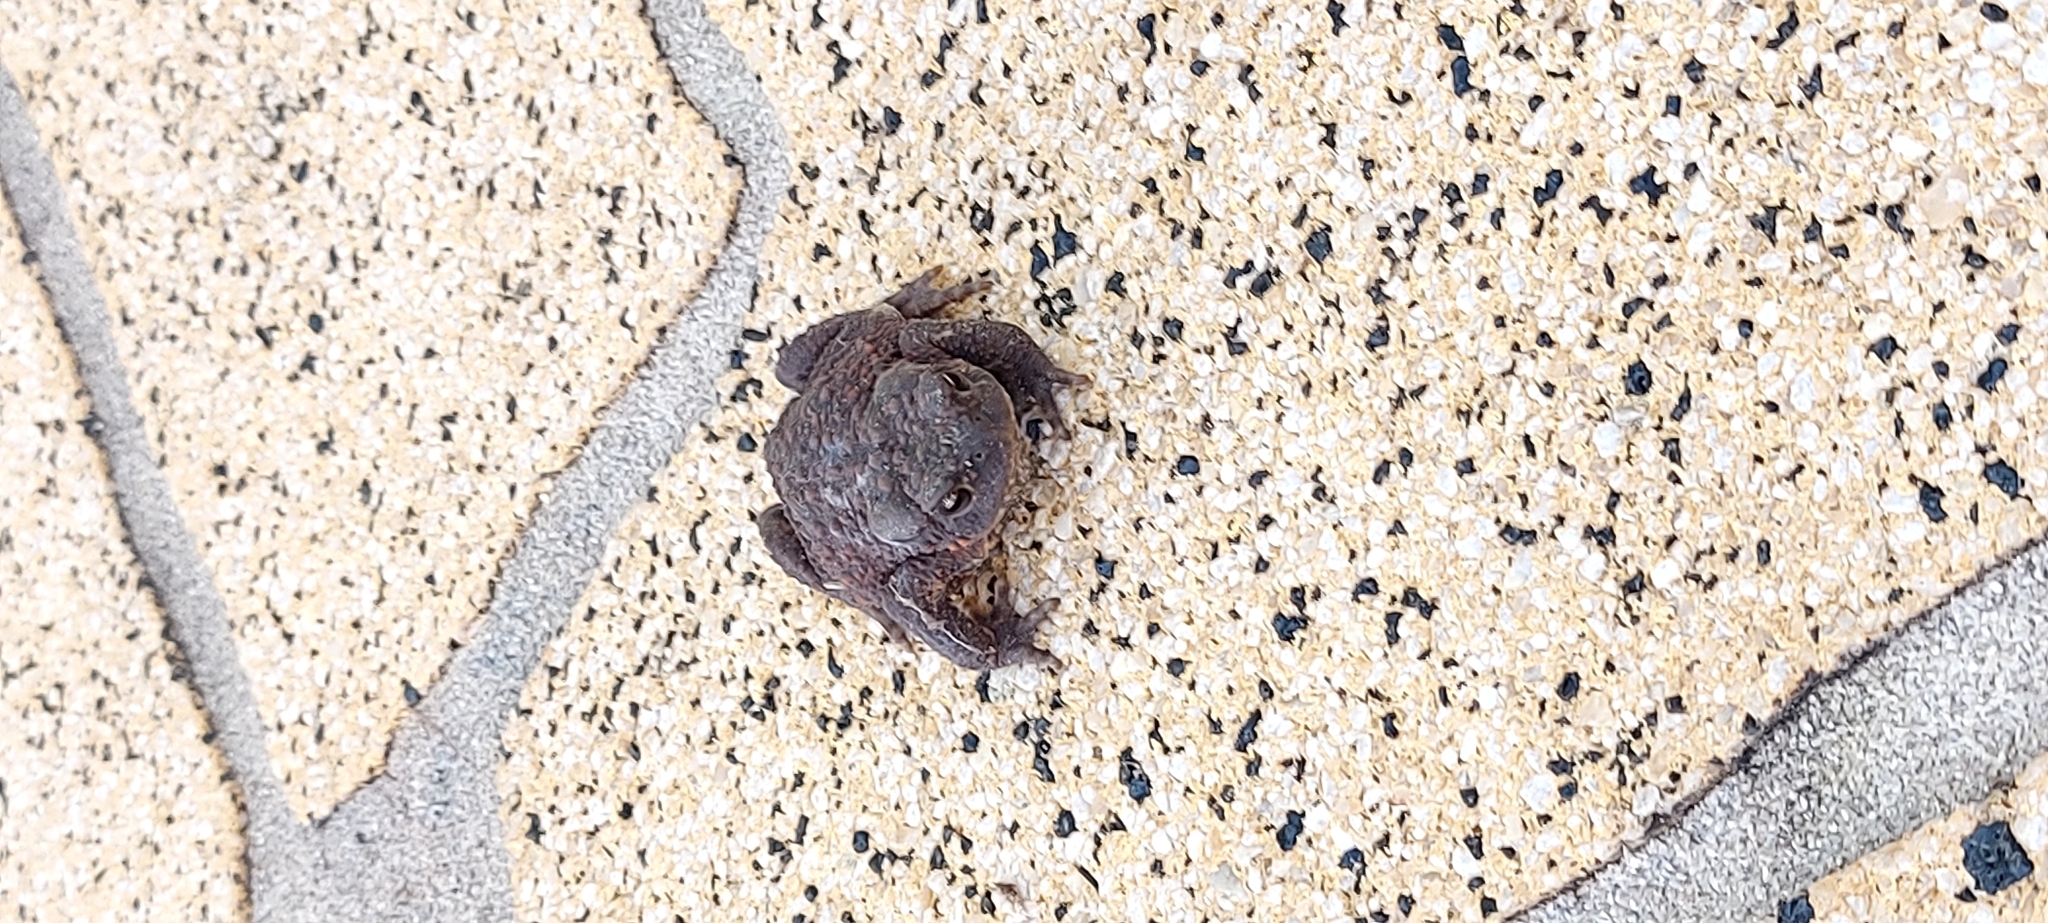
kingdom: Animalia
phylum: Chordata
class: Amphibia
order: Anura
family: Bufonidae
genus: Bufo
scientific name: Bufo bufo
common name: Common toad
